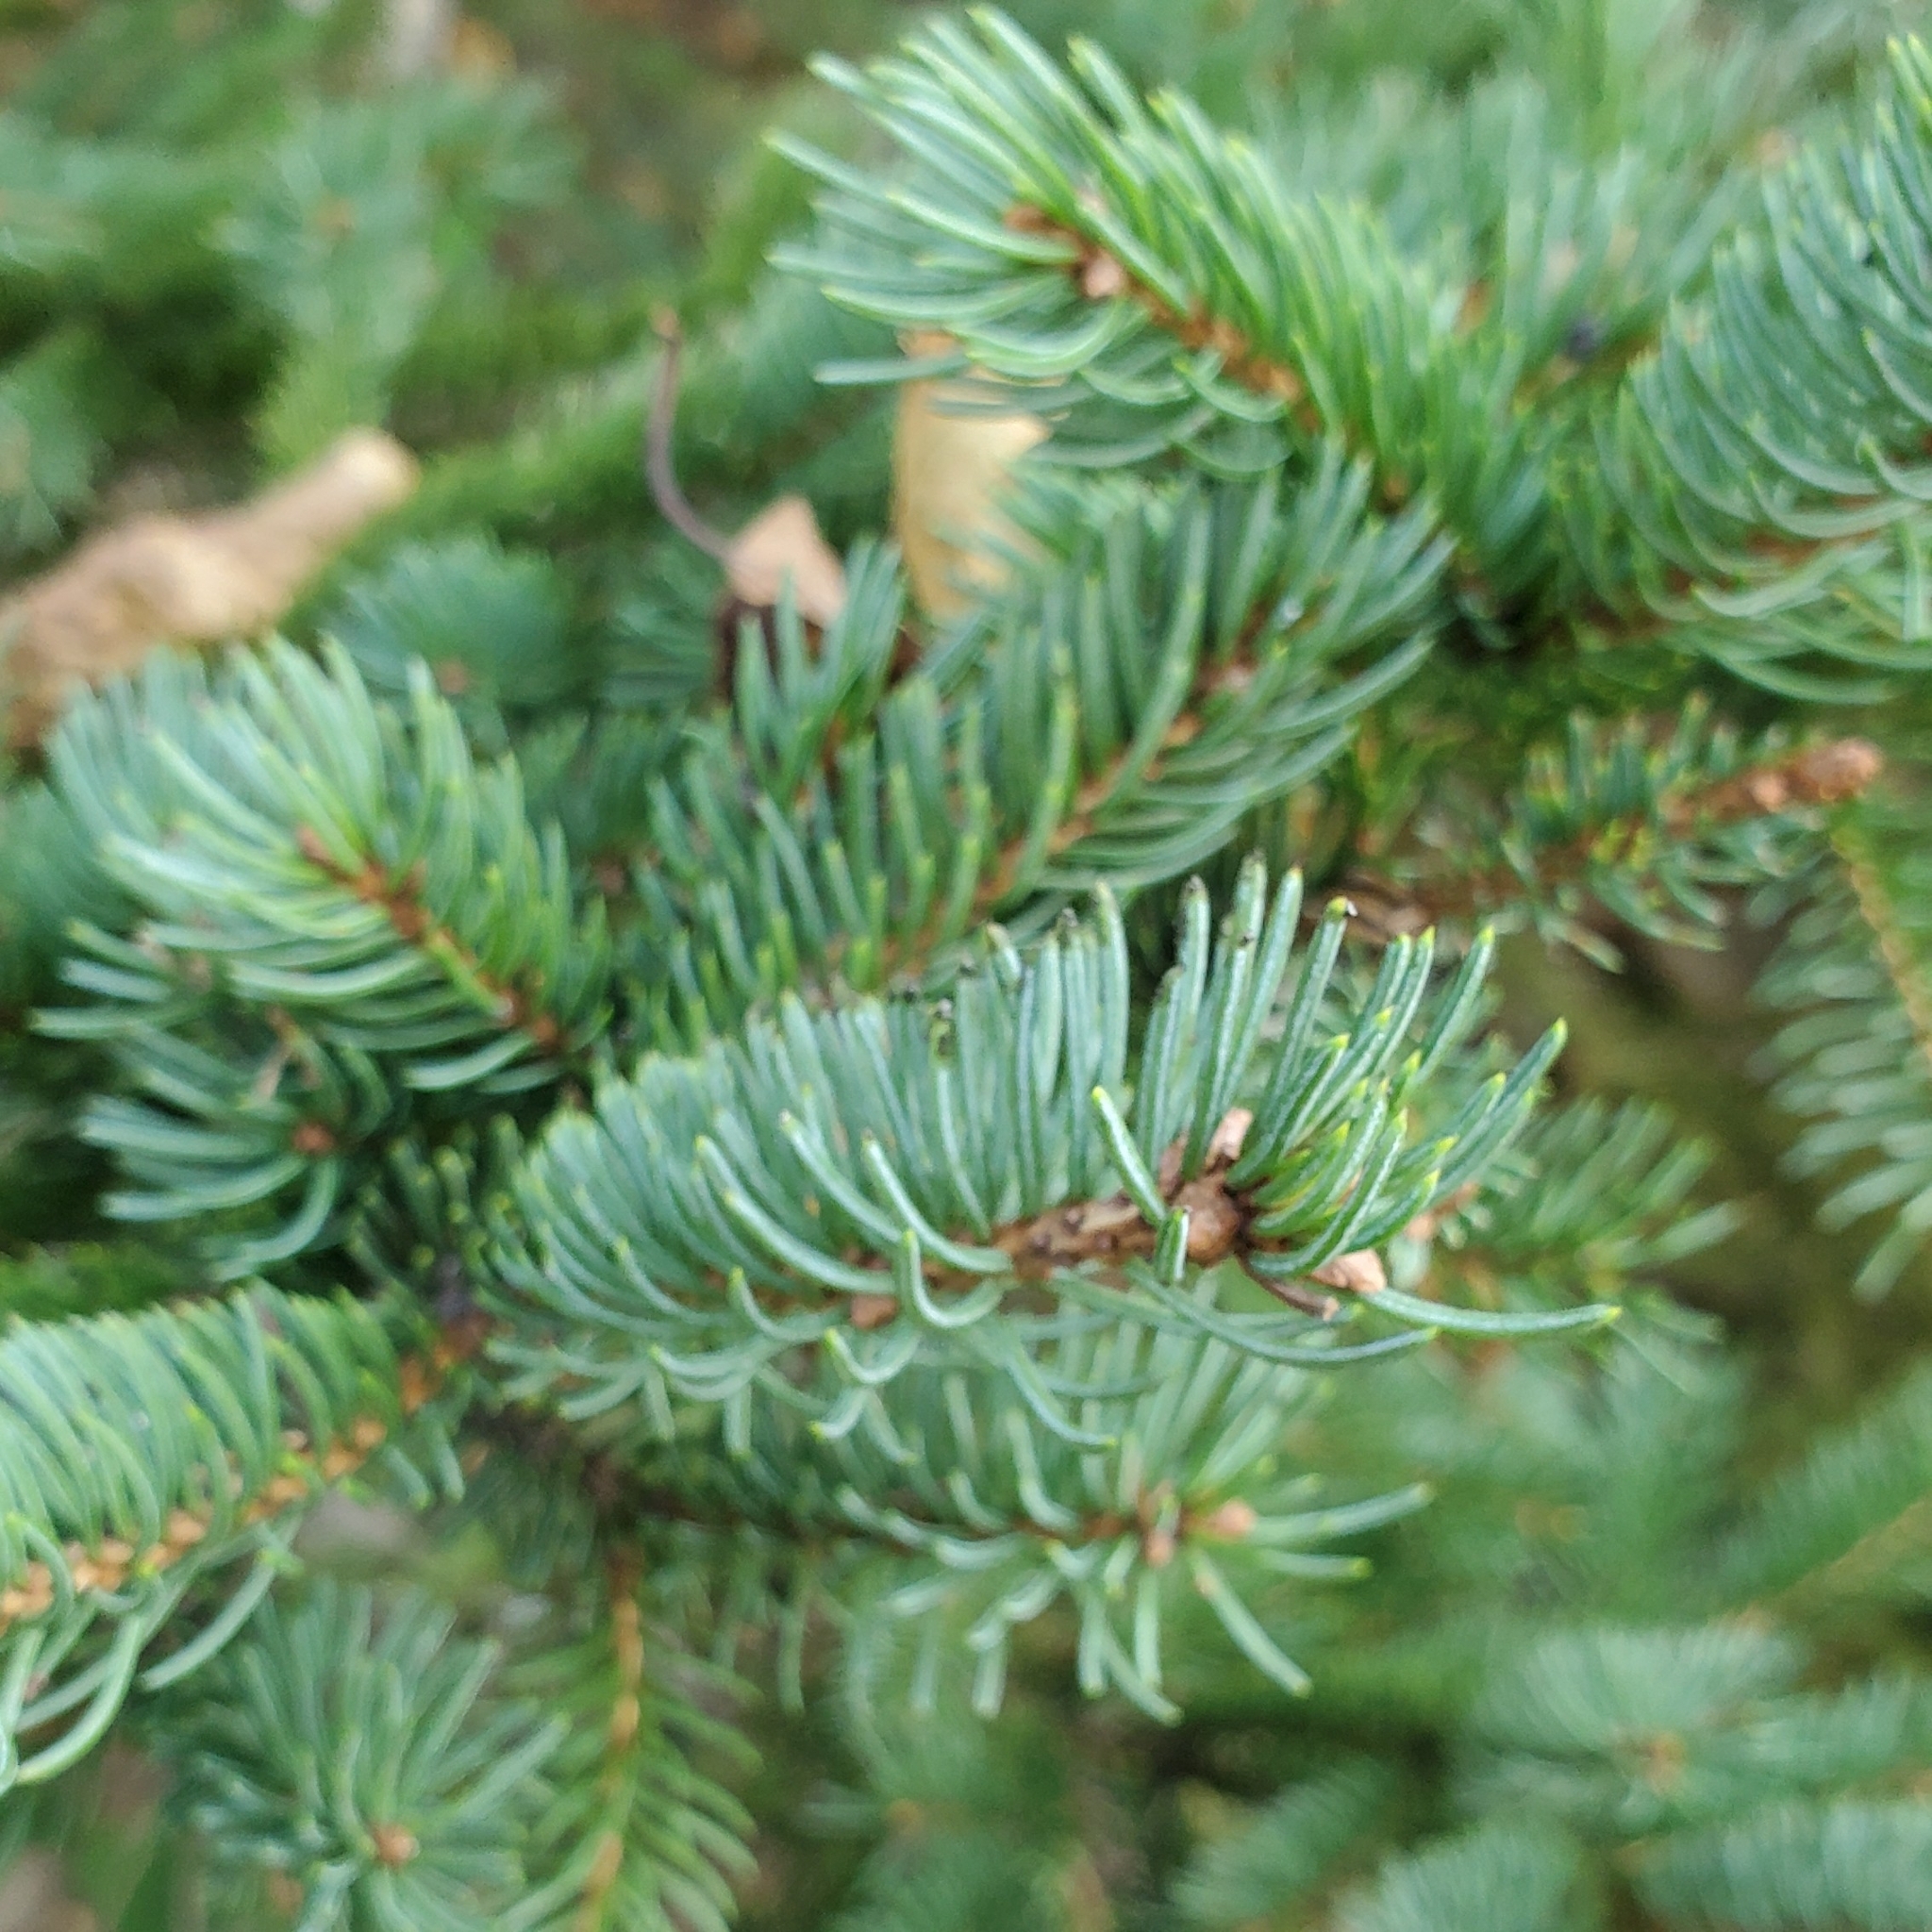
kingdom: Plantae
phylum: Tracheophyta
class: Pinopsida
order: Pinales
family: Pinaceae
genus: Picea
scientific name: Picea glauca
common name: White spruce
